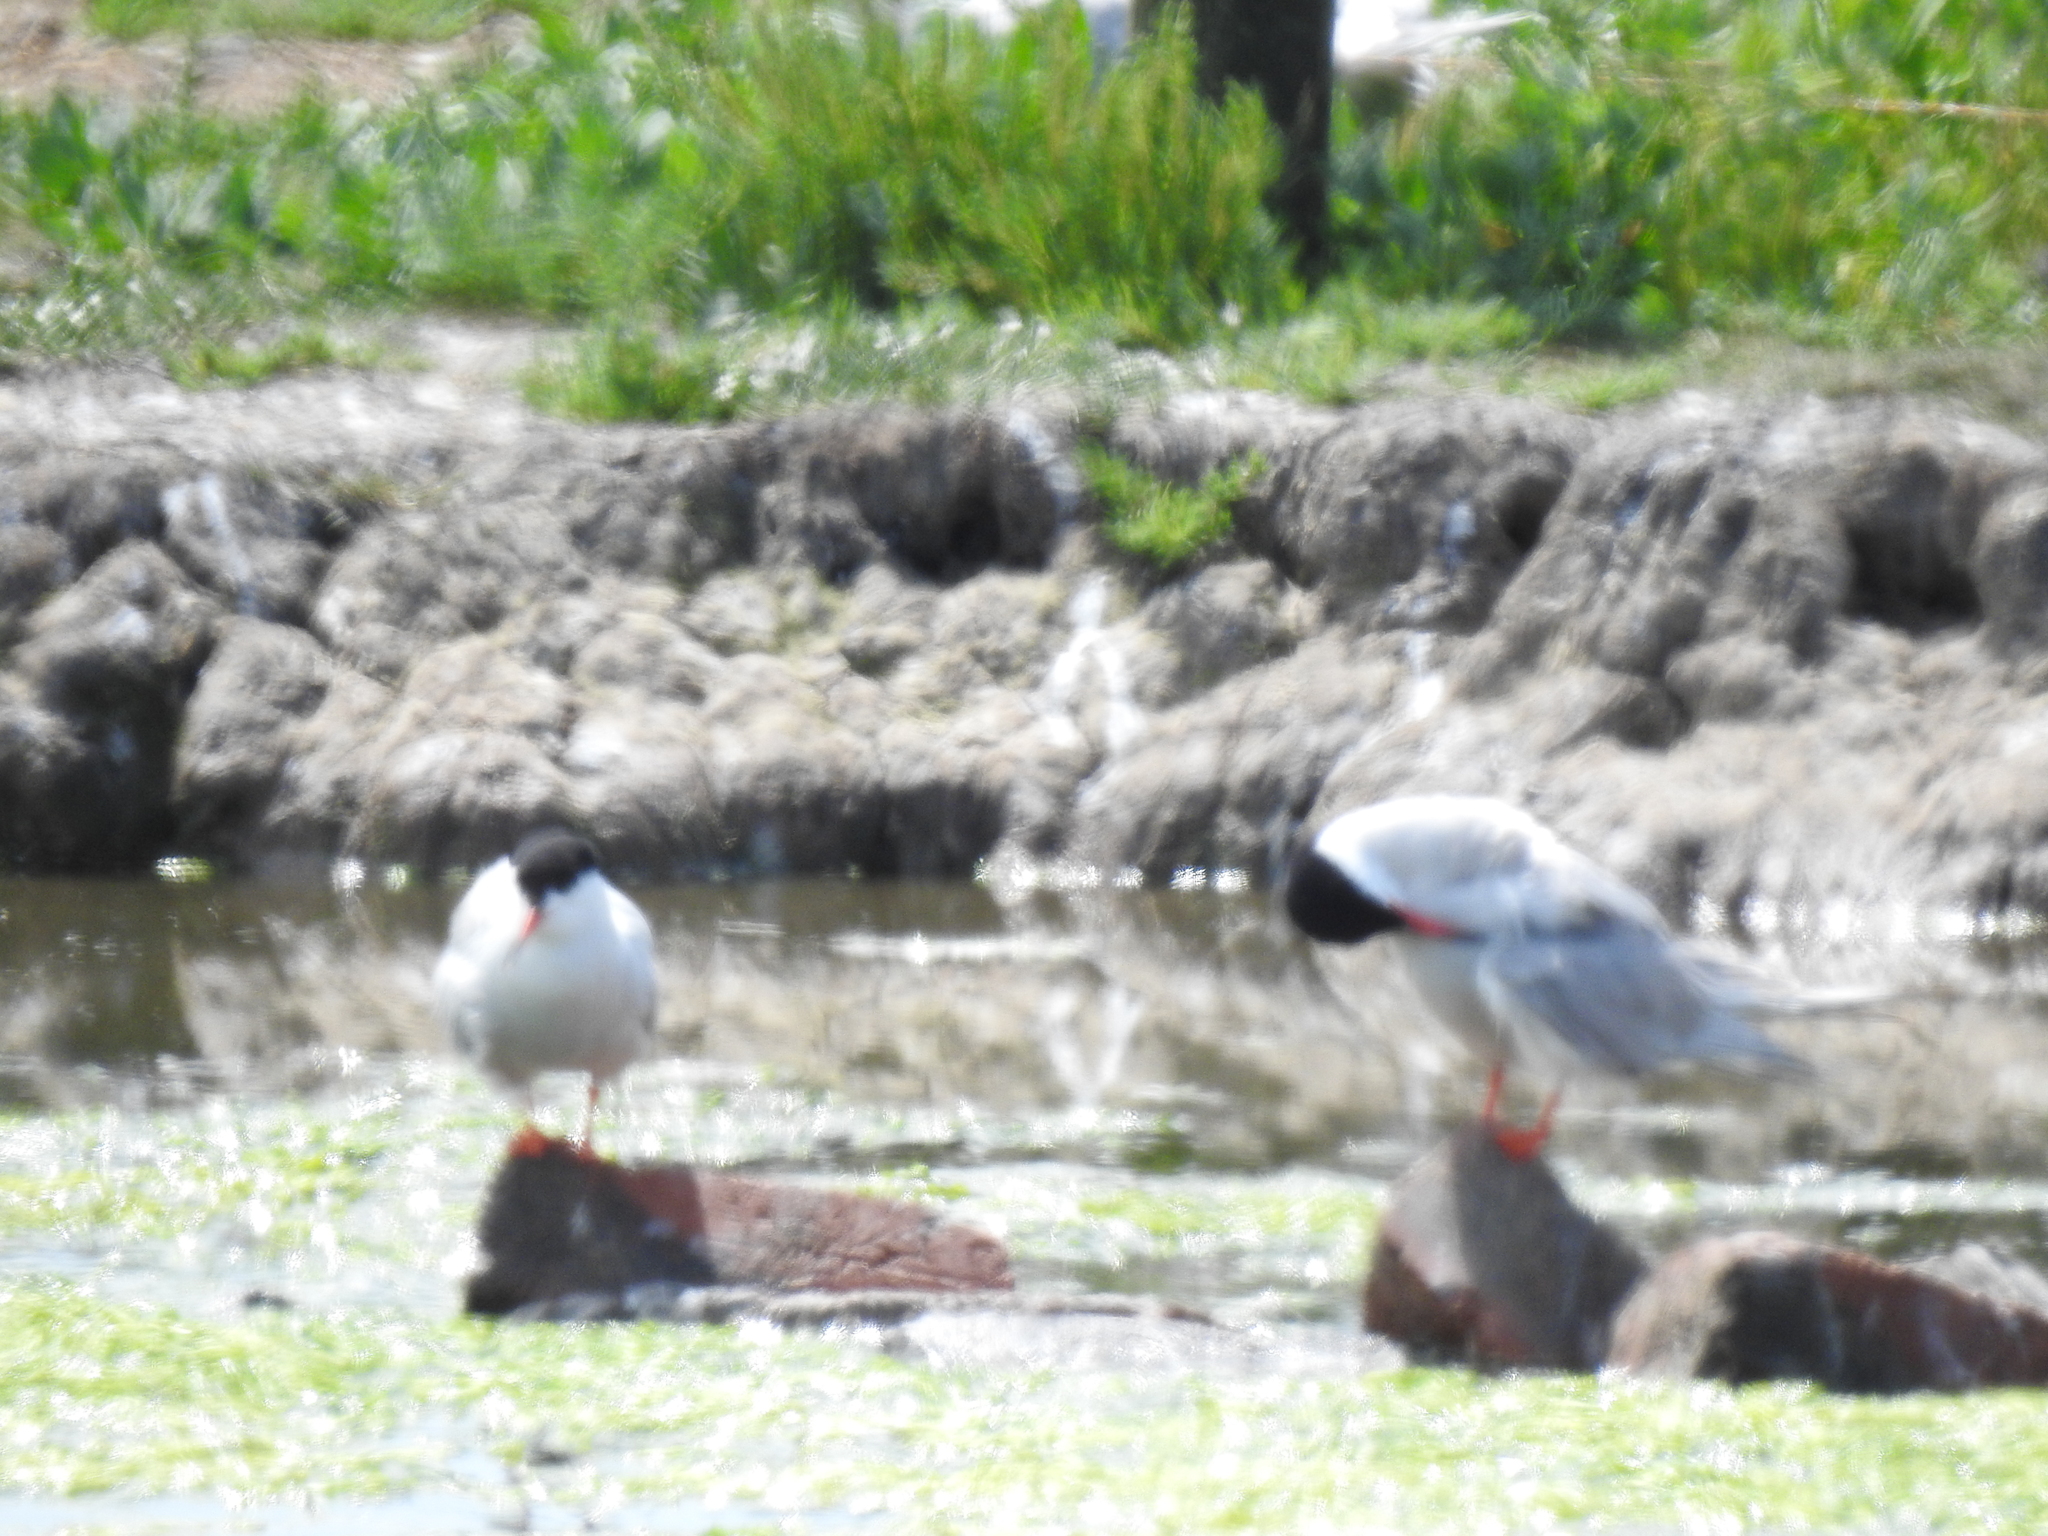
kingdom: Animalia
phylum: Chordata
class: Aves
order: Charadriiformes
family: Laridae
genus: Sterna
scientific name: Sterna hirundo
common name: Common tern
